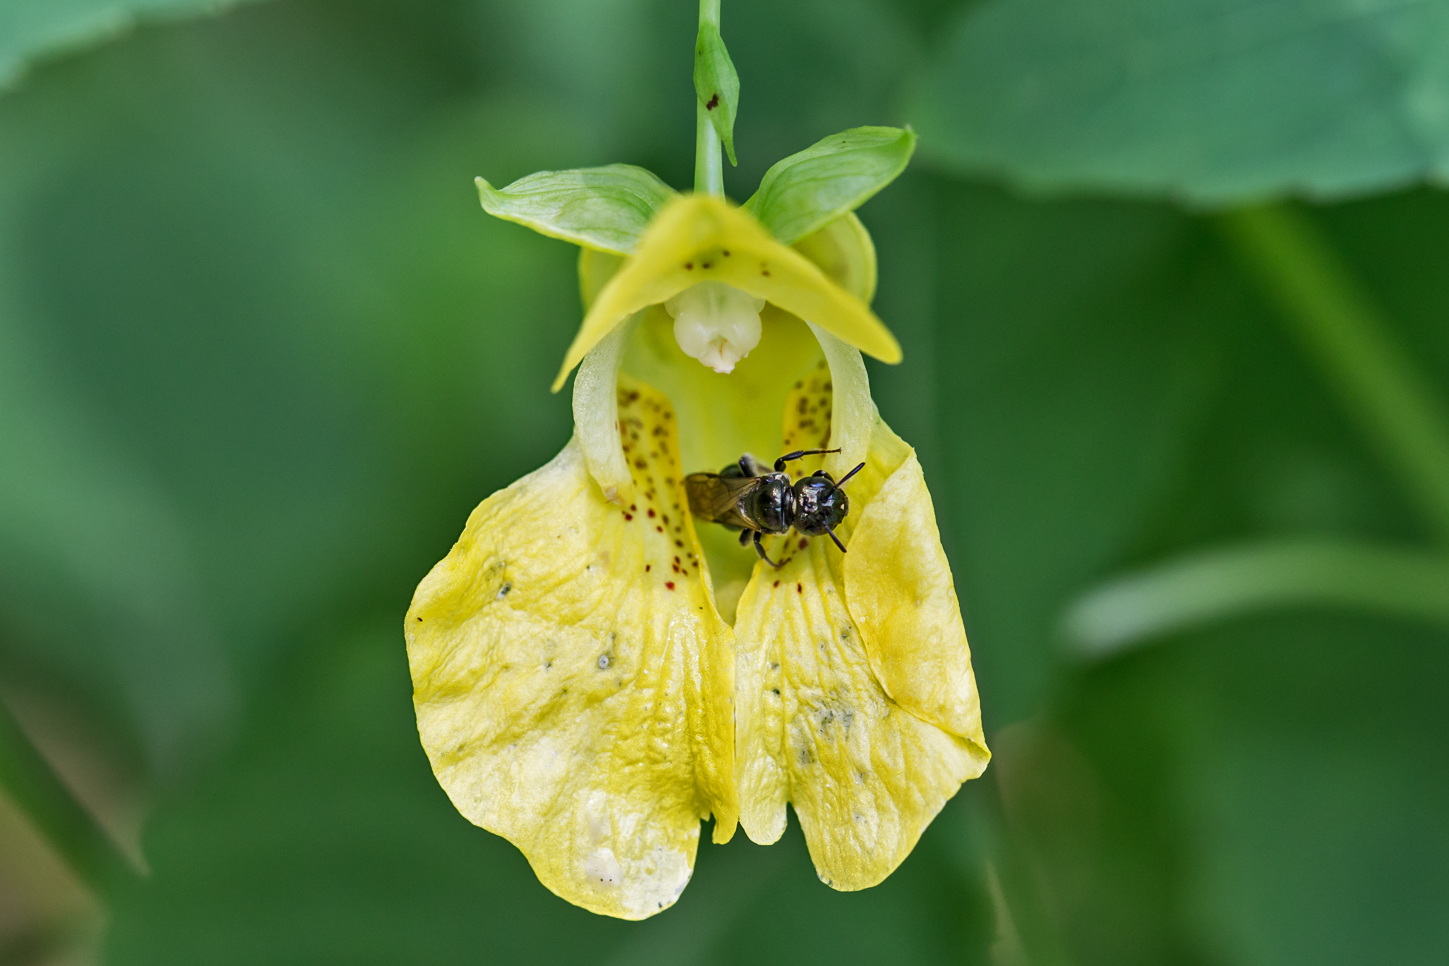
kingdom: Animalia
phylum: Arthropoda
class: Insecta
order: Hymenoptera
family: Apidae
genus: Ceratina
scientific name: Ceratina calcarata
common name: Spurred carpenter bee
